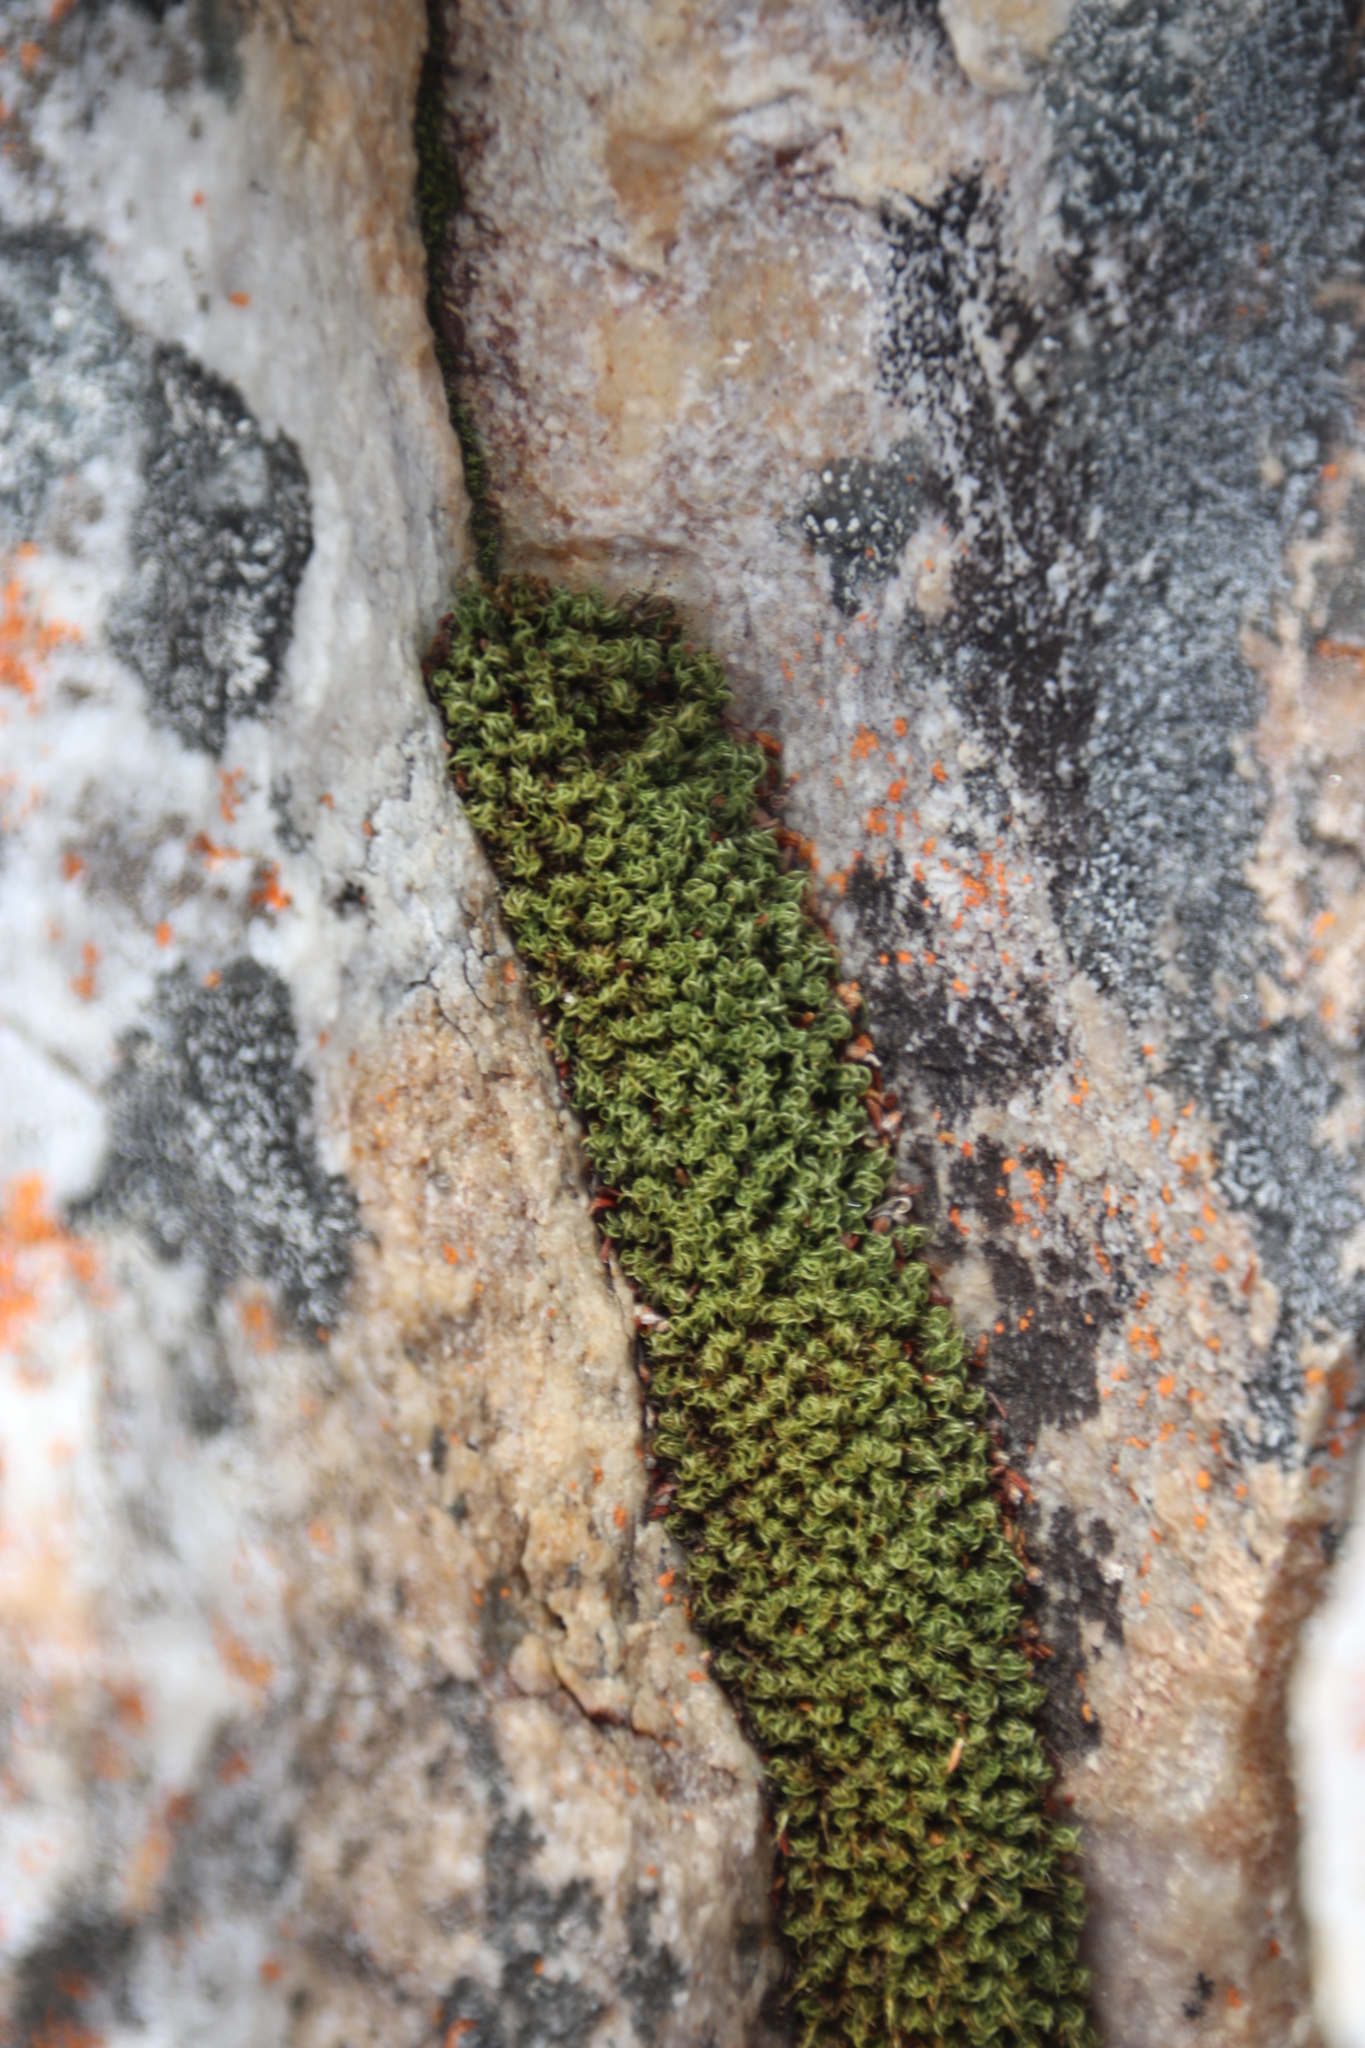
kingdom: Plantae
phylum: Bryophyta
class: Bryopsida
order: Dicranales
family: Hypodontiaceae
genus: Hypodontium
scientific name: Hypodontium dregei
